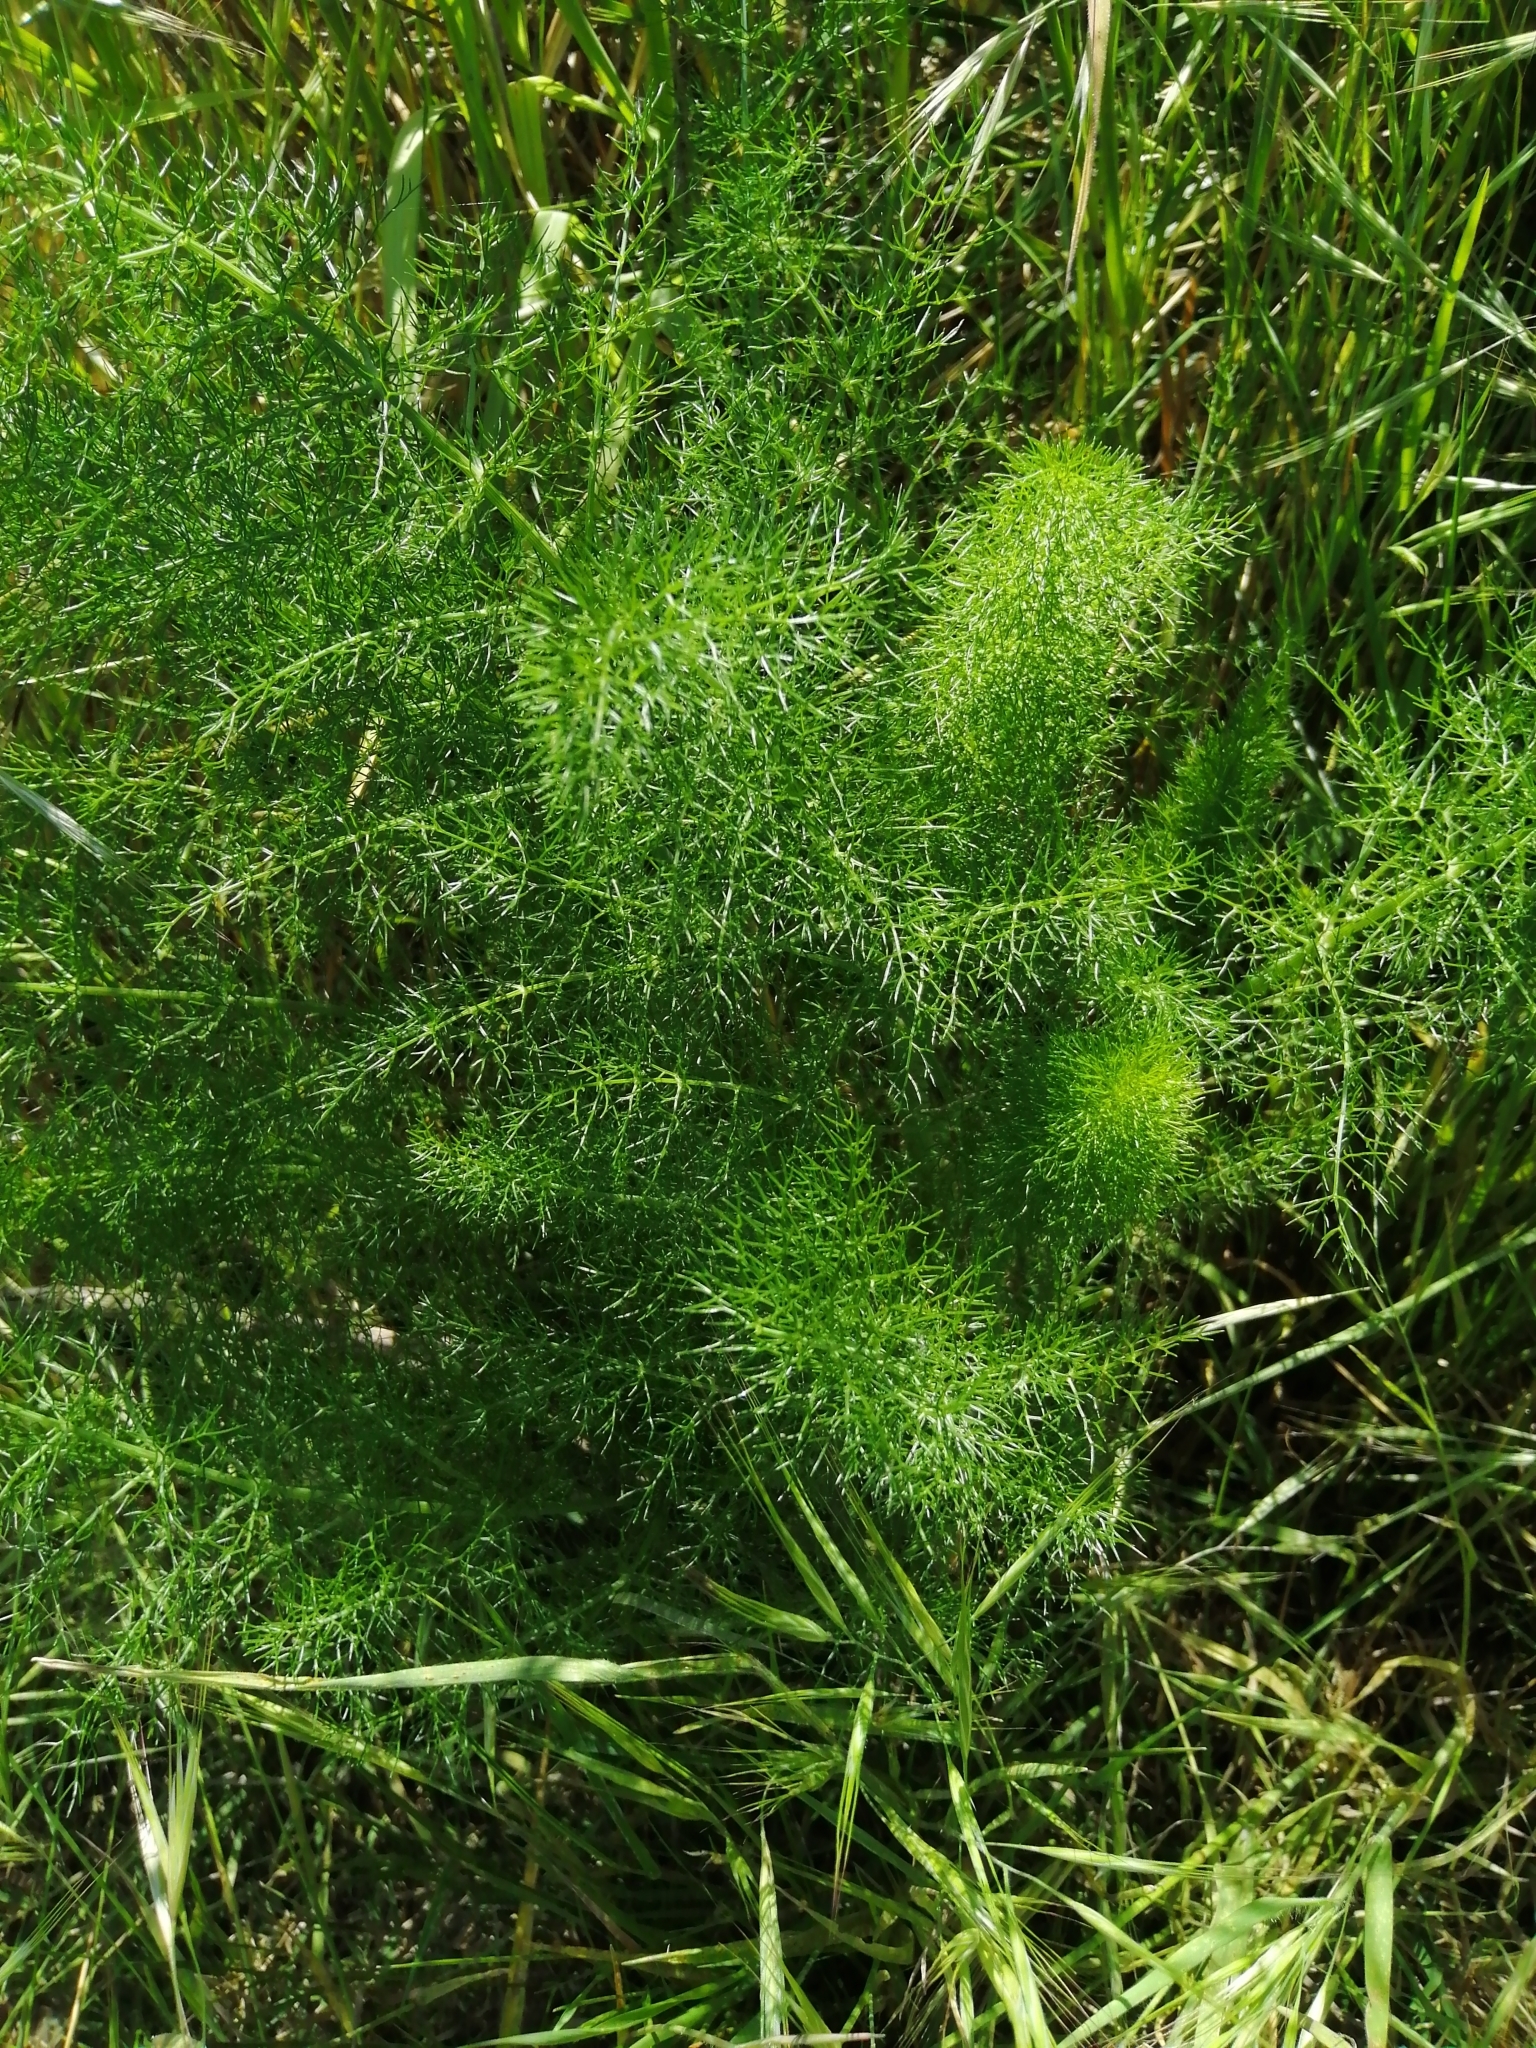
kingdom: Plantae
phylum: Tracheophyta
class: Magnoliopsida
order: Apiales
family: Apiaceae
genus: Foeniculum
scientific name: Foeniculum vulgare
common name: Fennel
